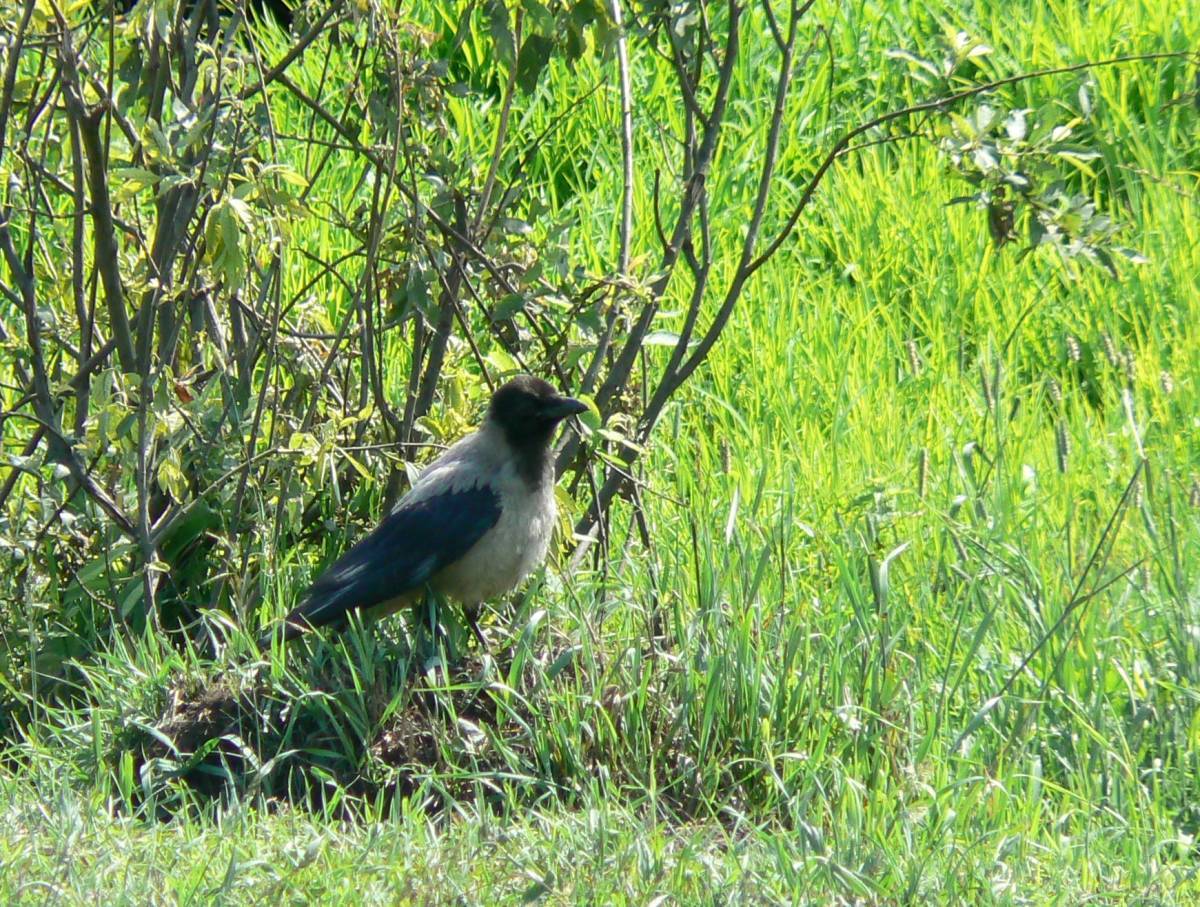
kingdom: Animalia
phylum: Chordata
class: Aves
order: Passeriformes
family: Corvidae
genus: Corvus
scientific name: Corvus cornix
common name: Hooded crow
